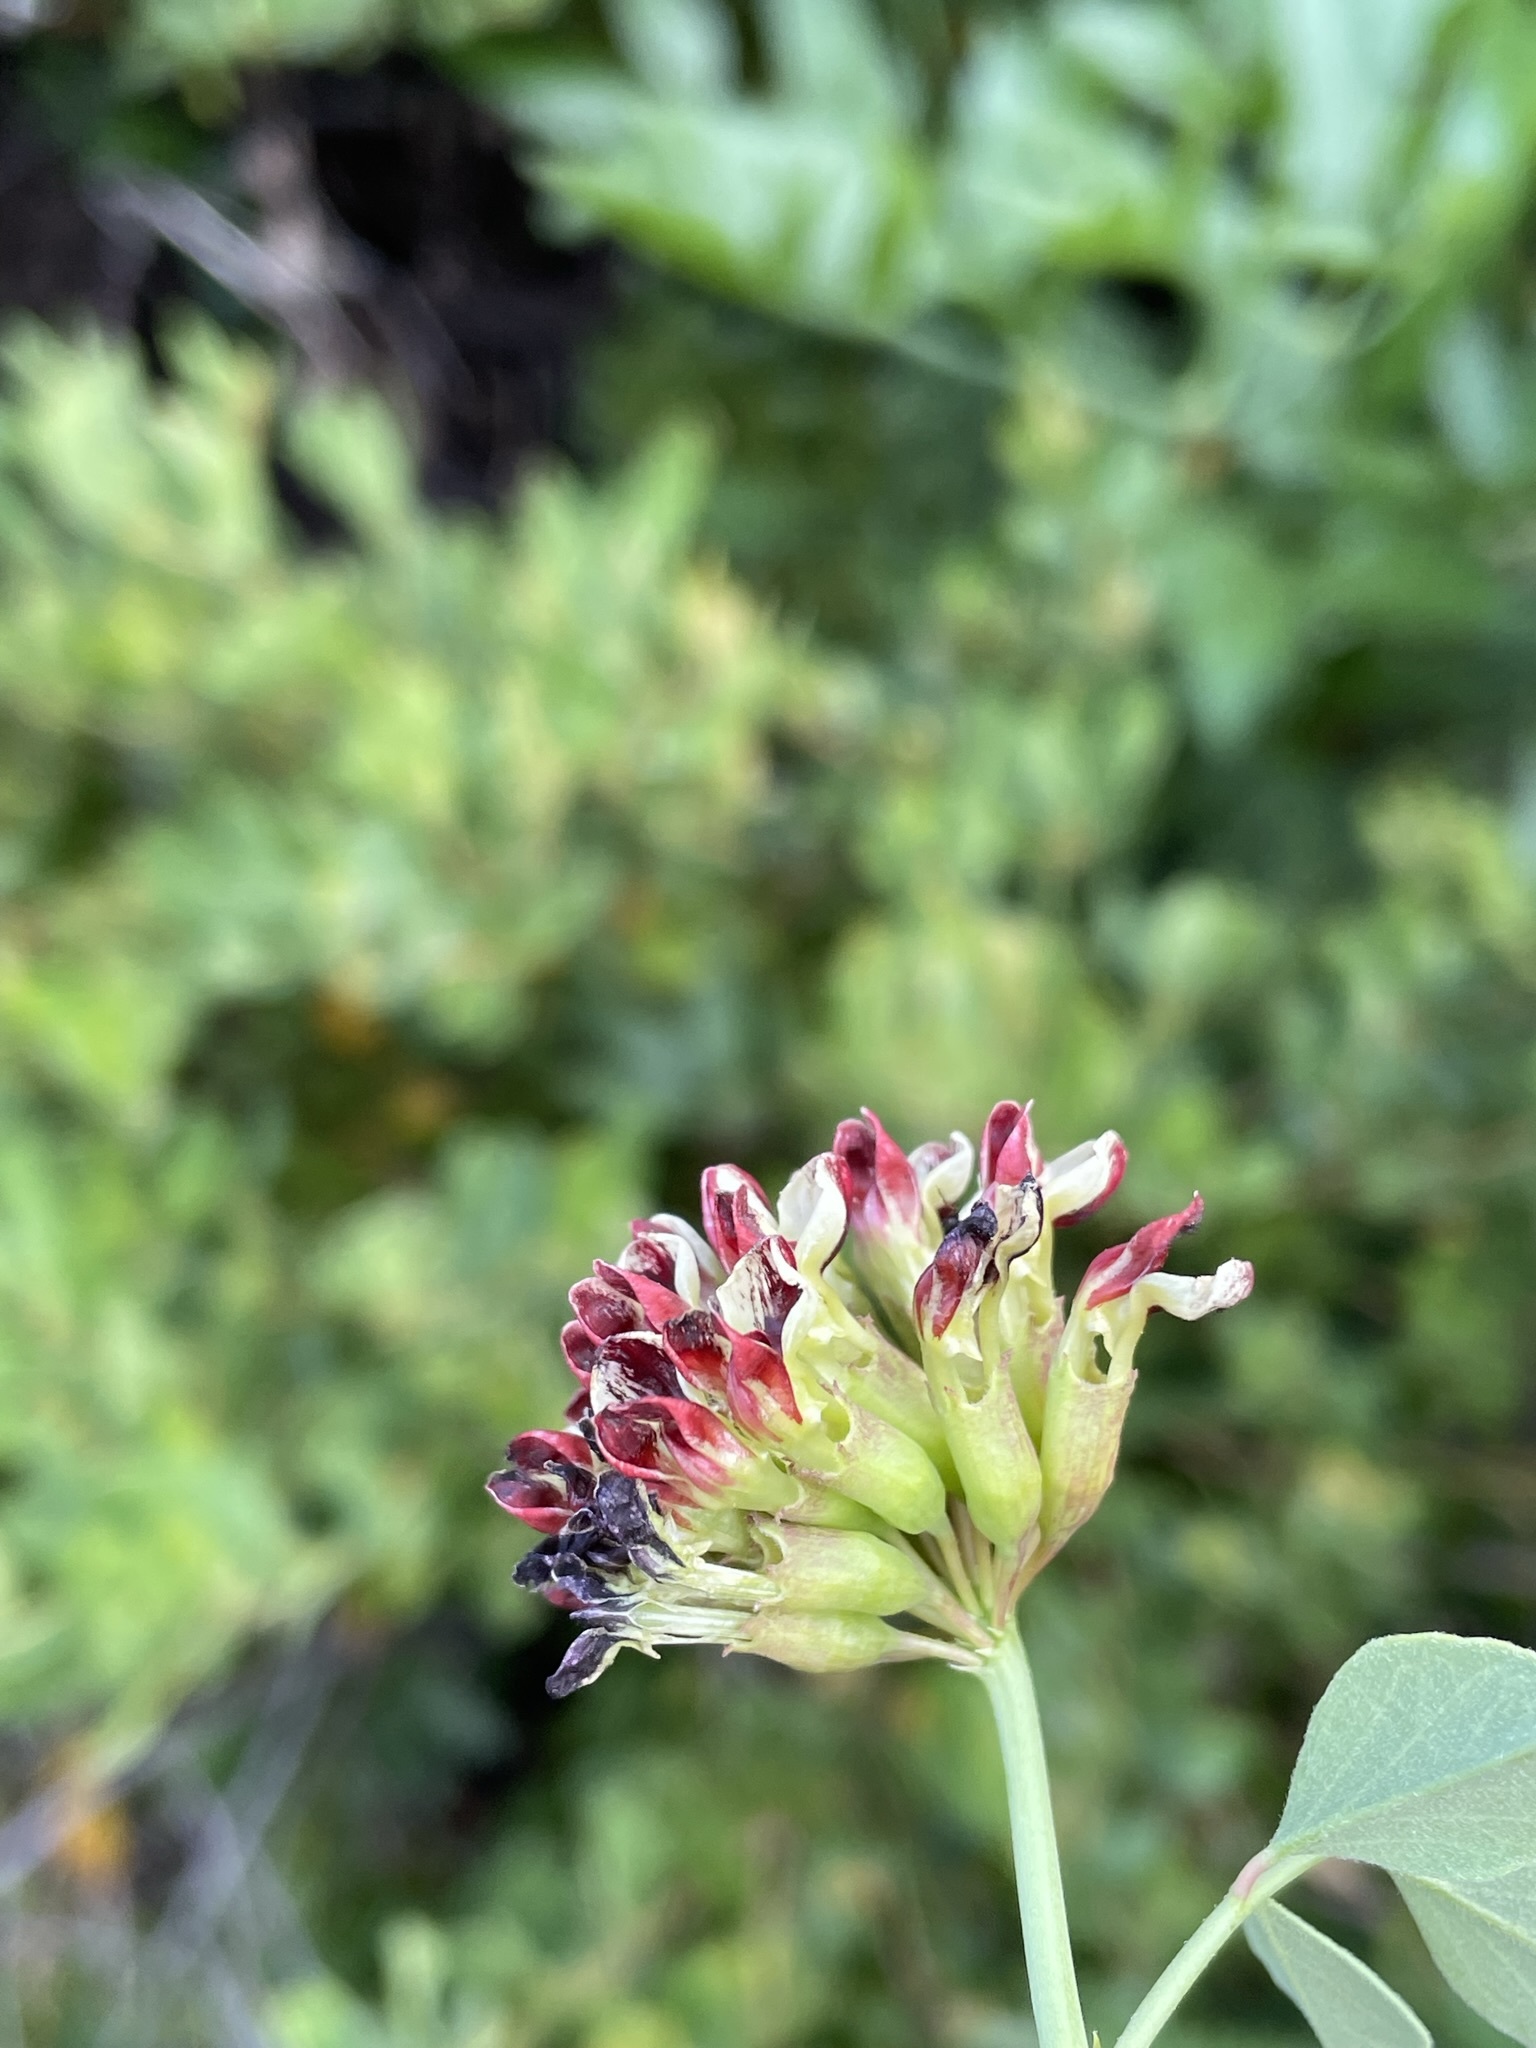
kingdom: Plantae
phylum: Tracheophyta
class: Magnoliopsida
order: Fabales
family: Fabaceae
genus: Hosackia
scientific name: Hosackia crassifolia
